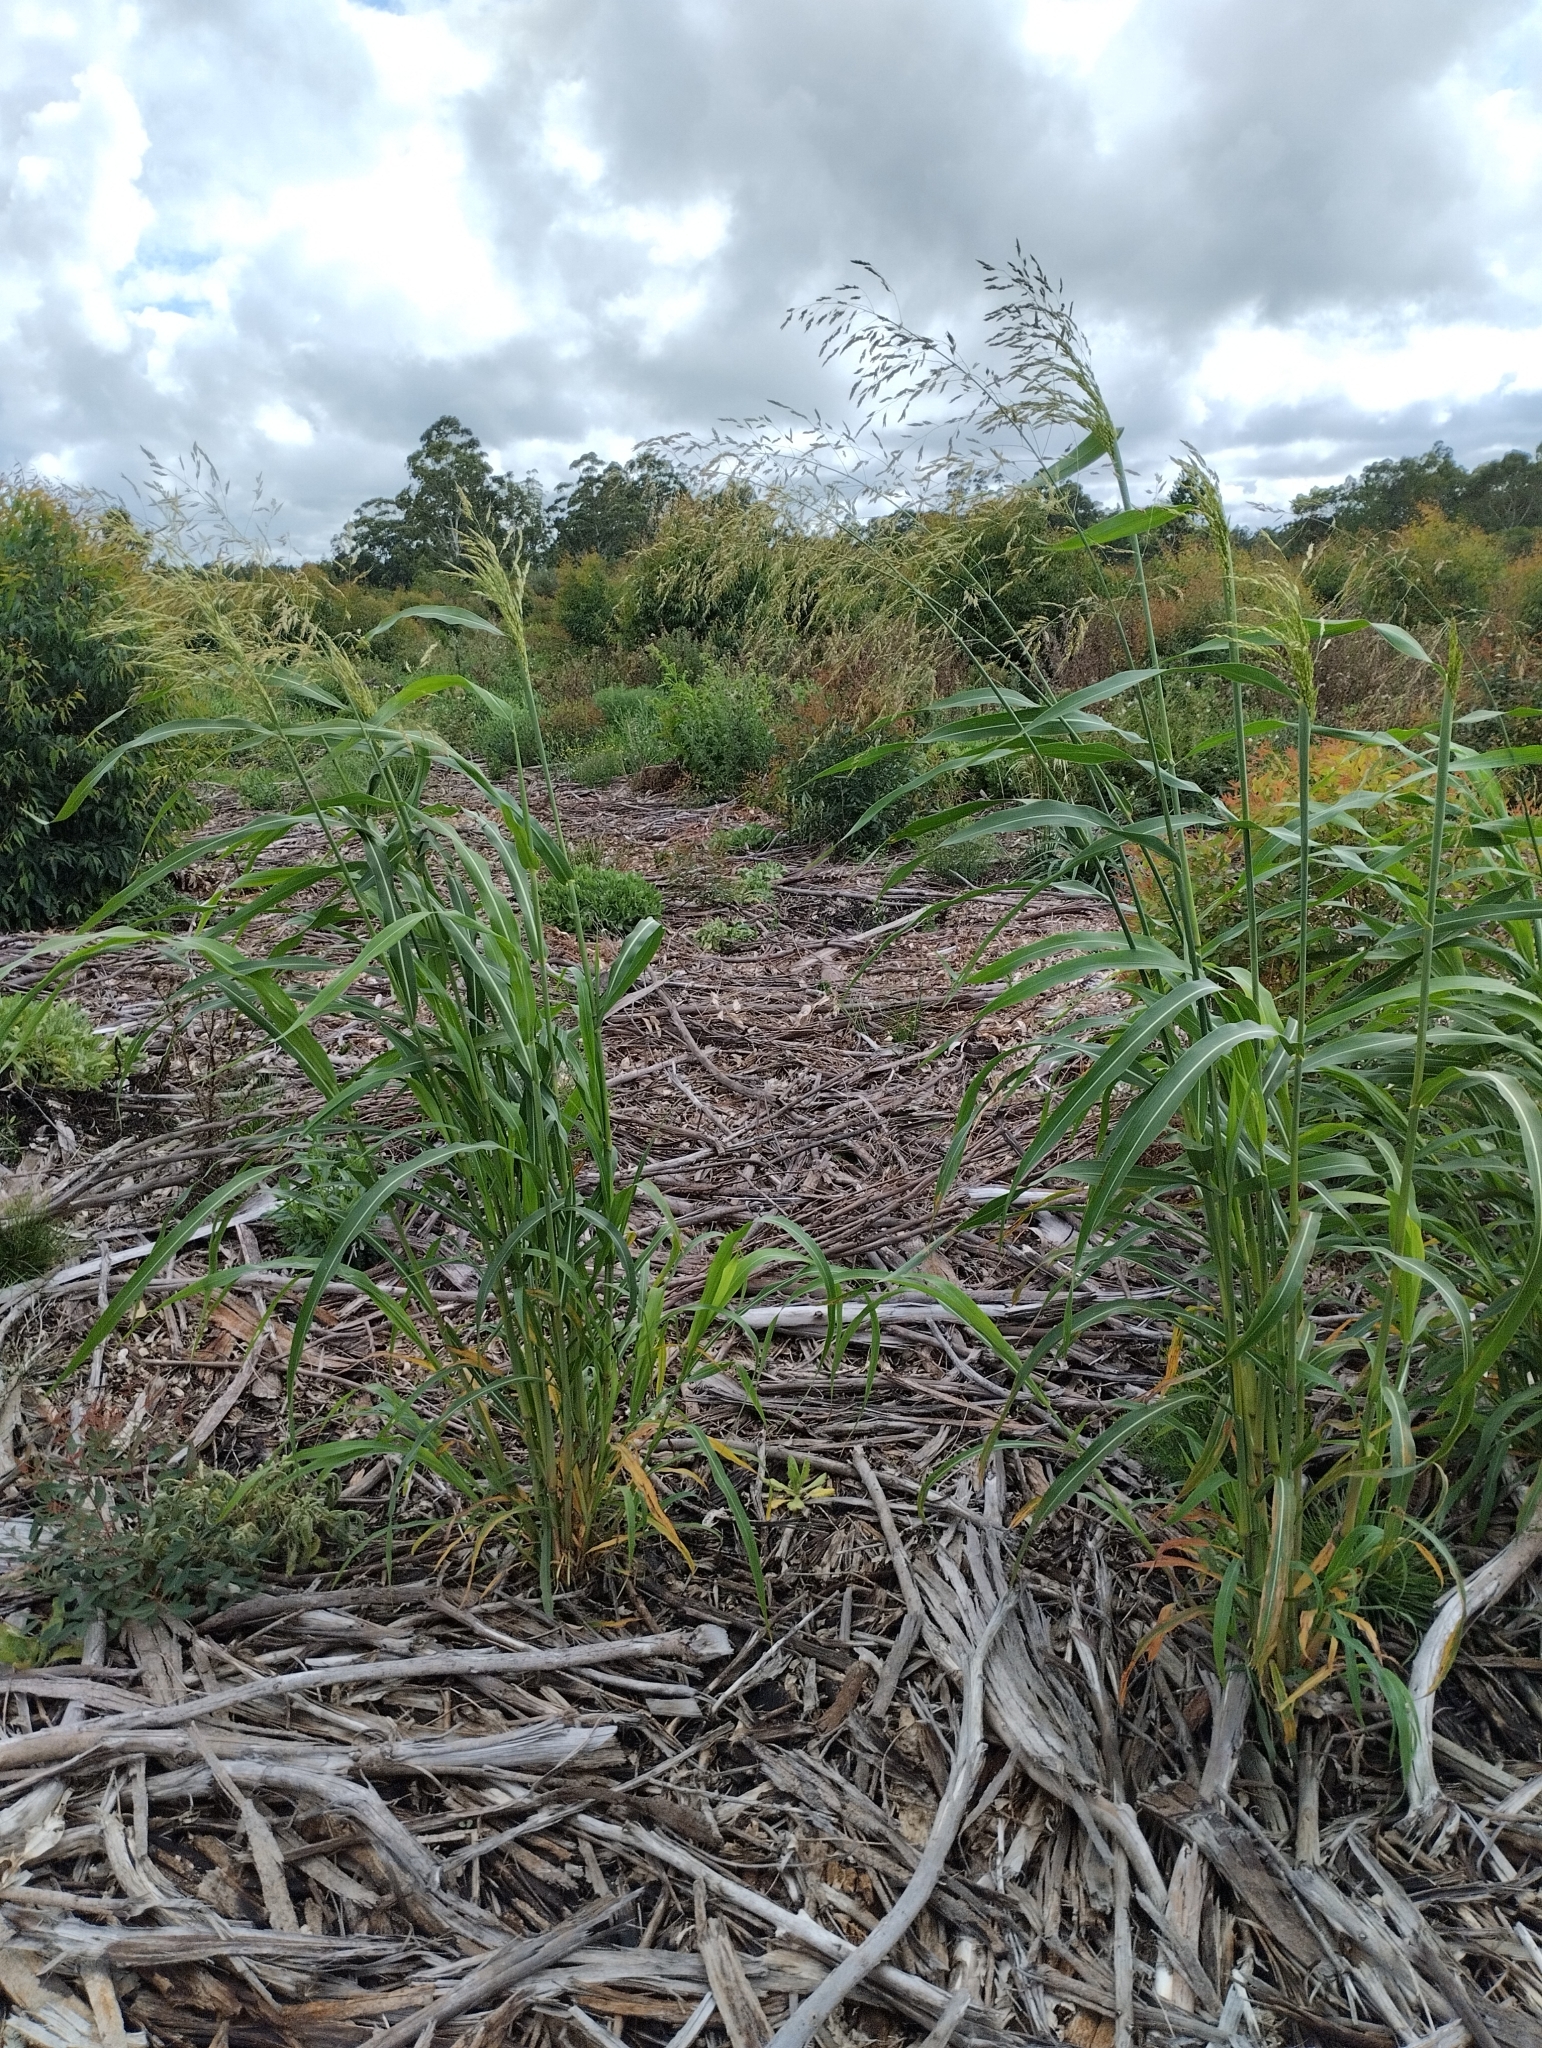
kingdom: Plantae
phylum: Tracheophyta
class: Liliopsida
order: Poales
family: Poaceae
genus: Sorghum
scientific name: Sorghum halepense
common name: Johnson-grass
